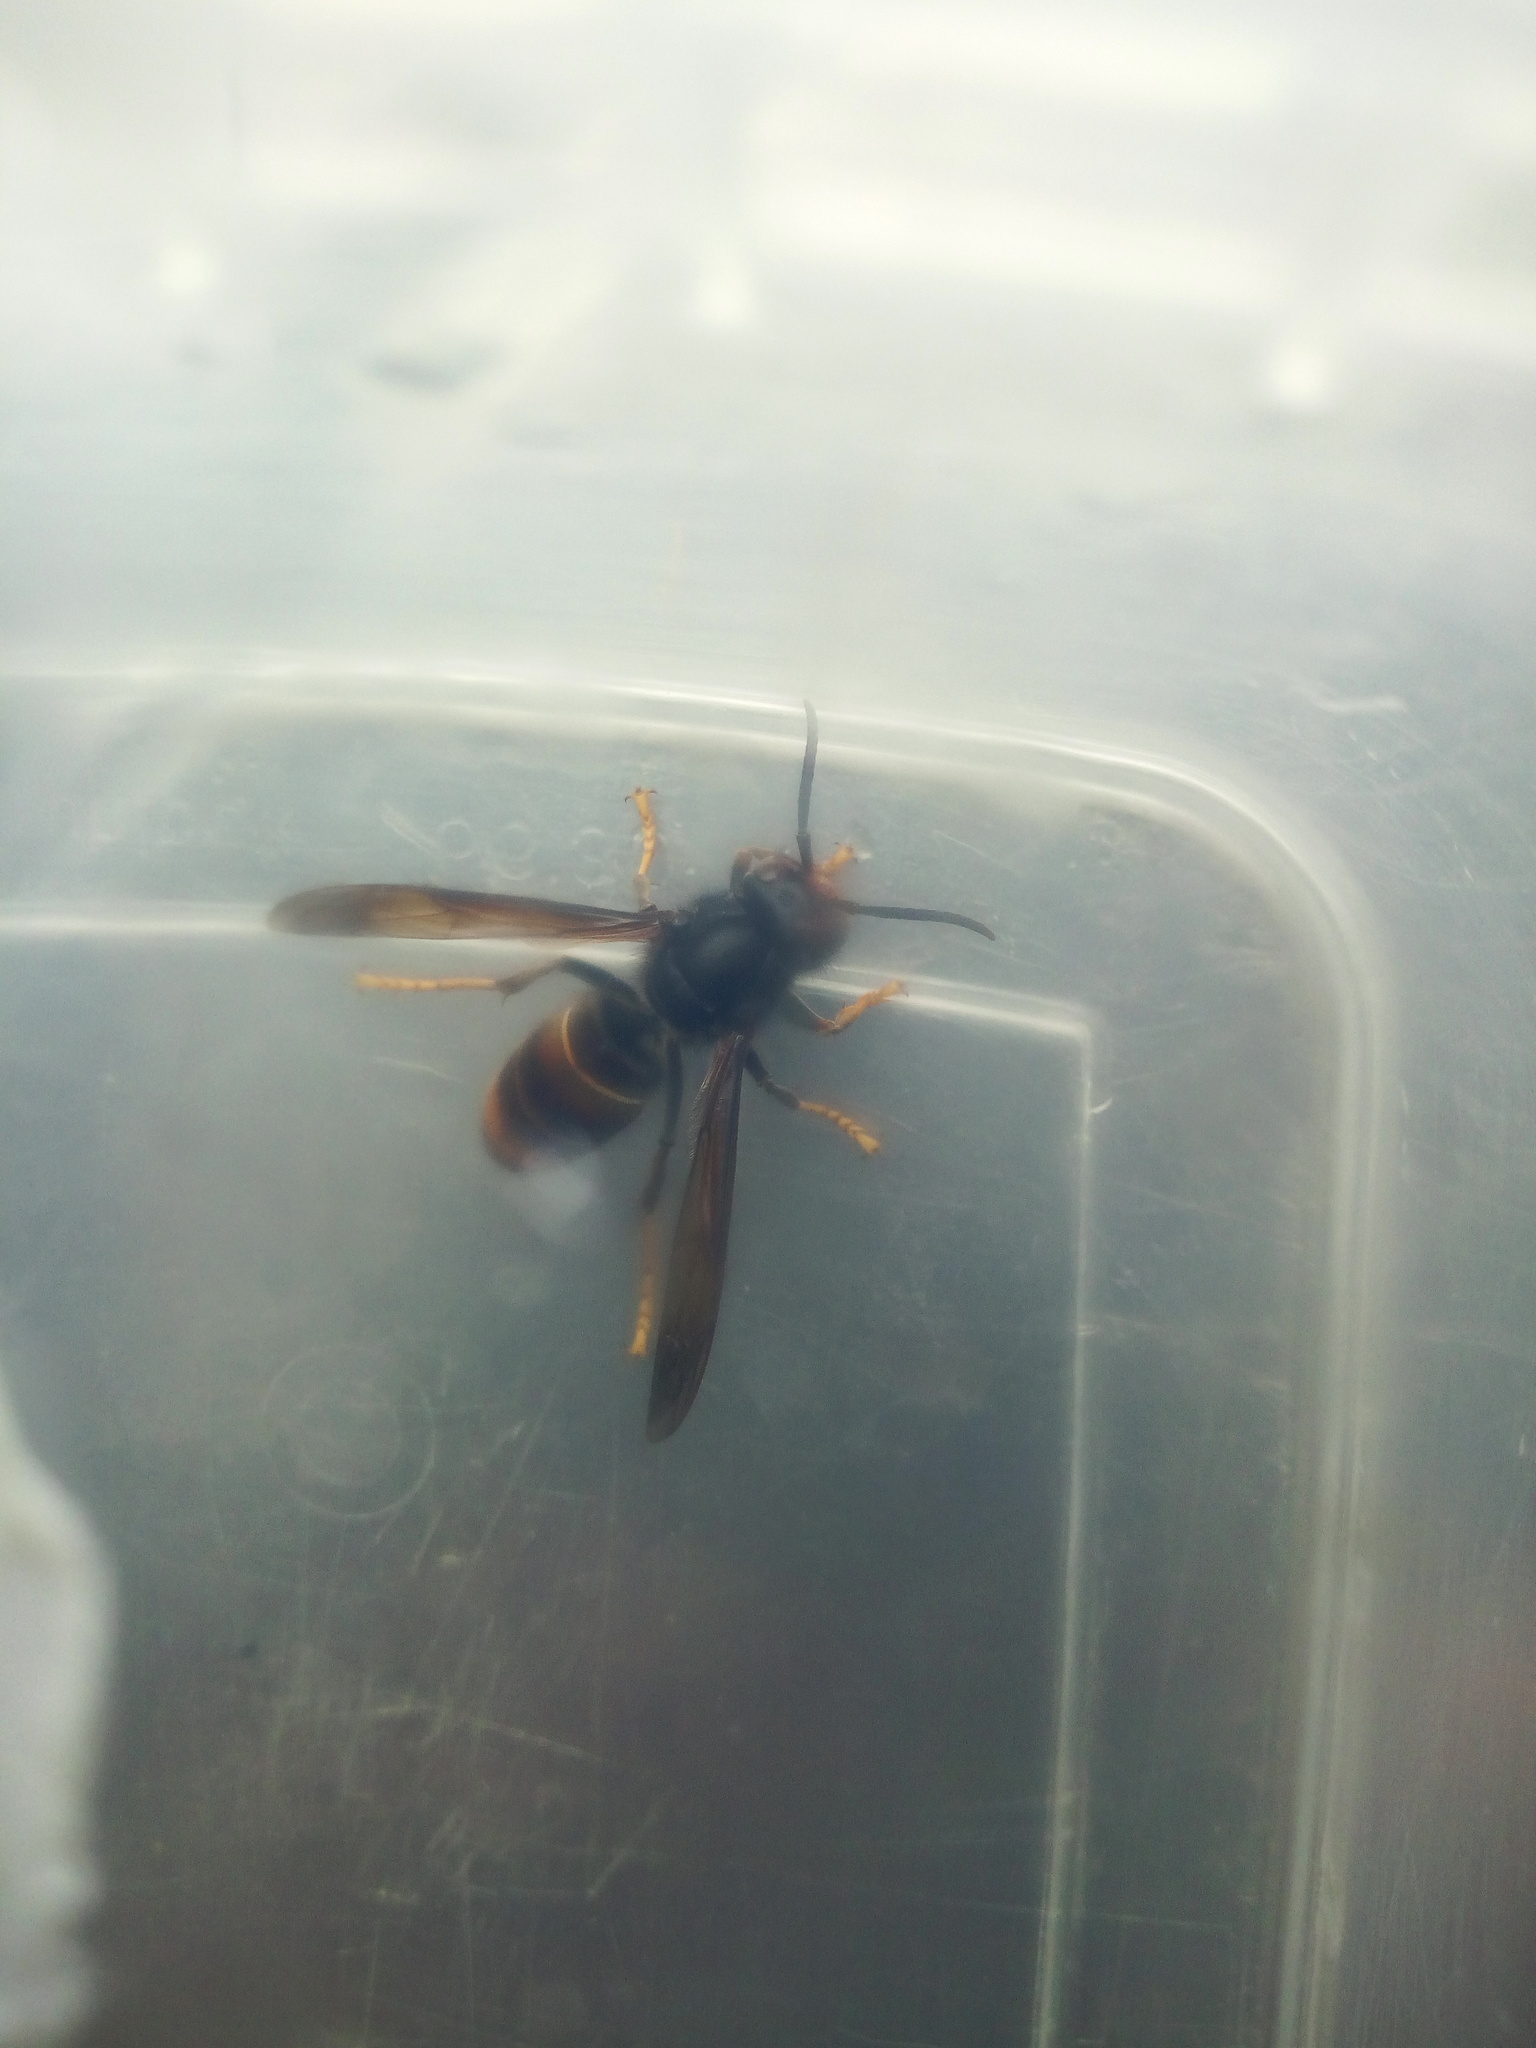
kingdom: Animalia
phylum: Arthropoda
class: Insecta
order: Hymenoptera
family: Vespidae
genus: Vespa
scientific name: Vespa velutina
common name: Asian hornet
